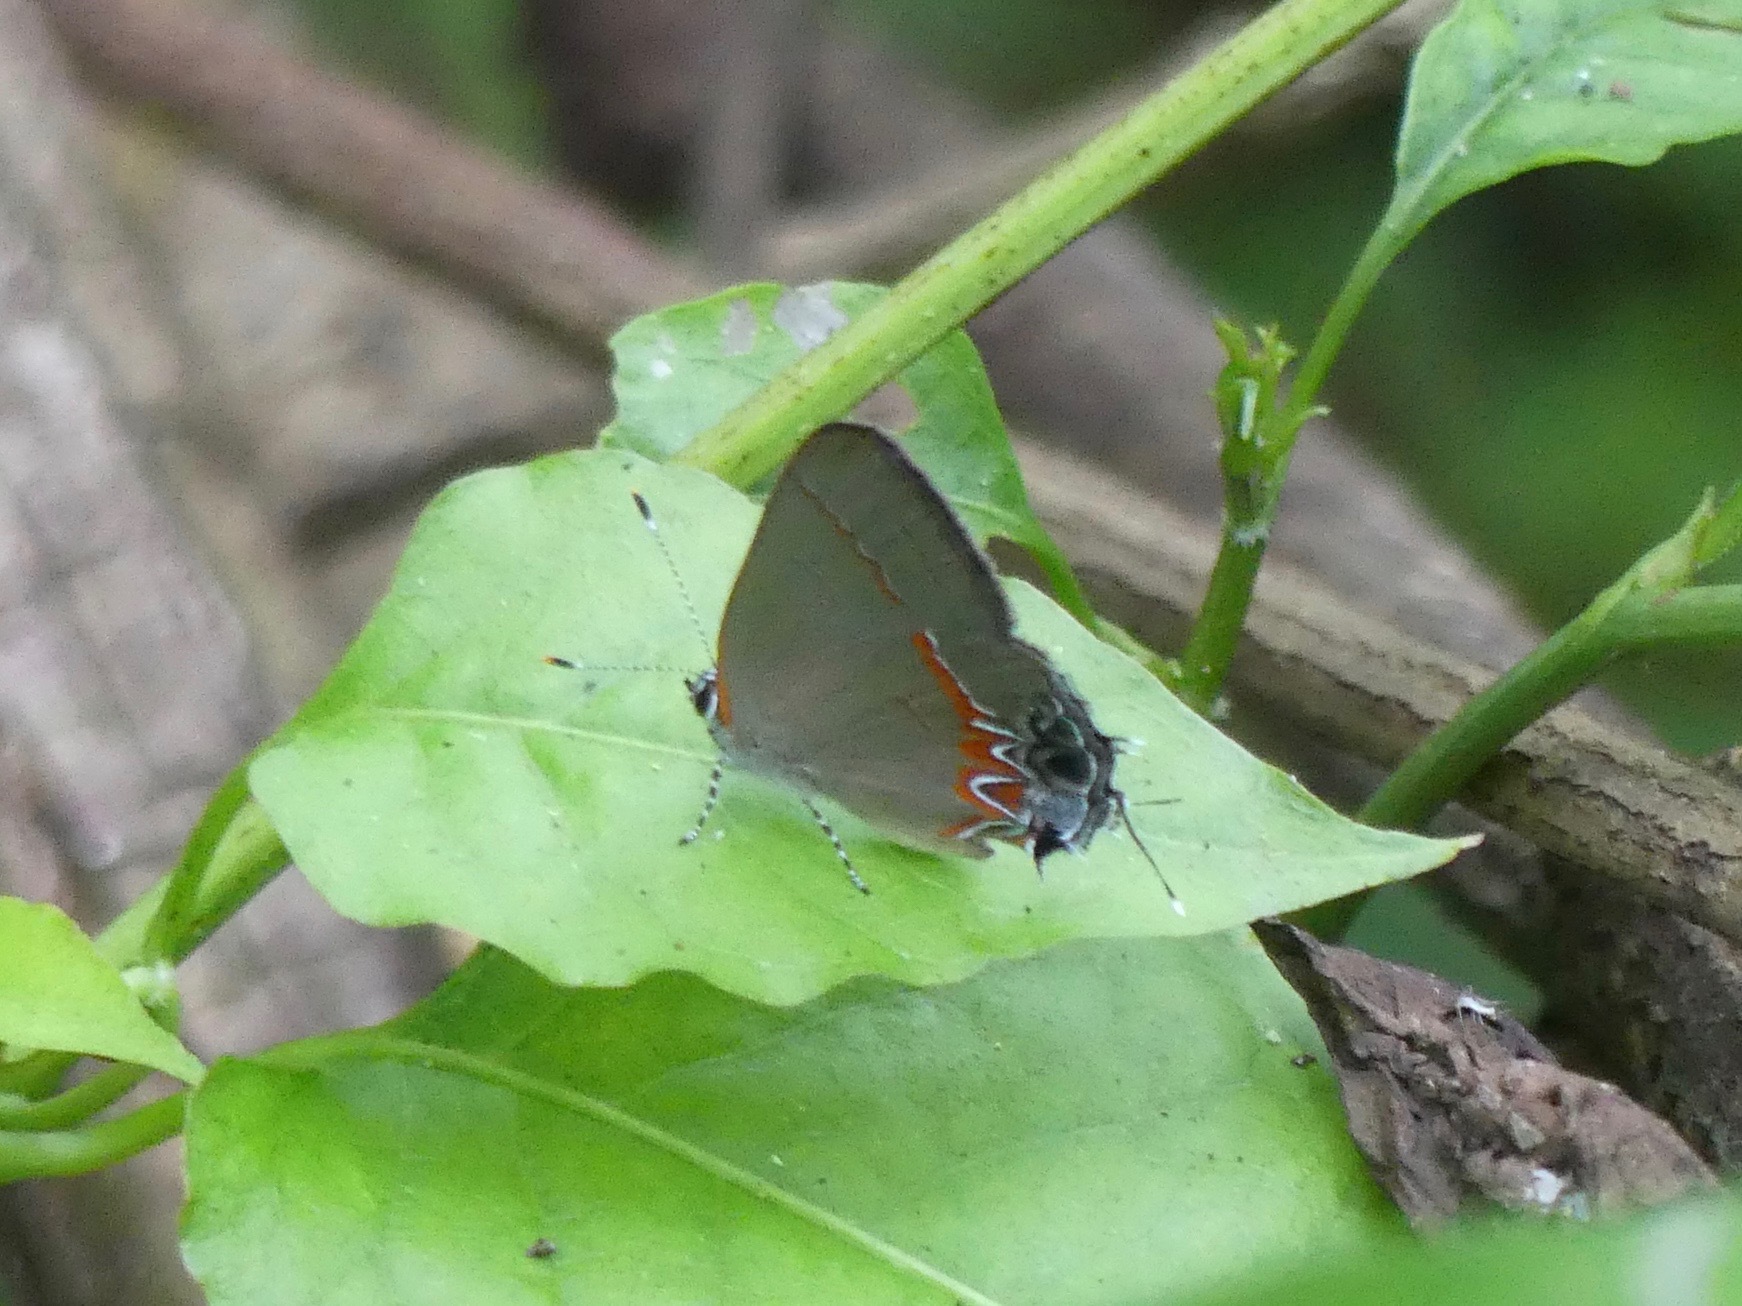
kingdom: Animalia
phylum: Arthropoda
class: Insecta
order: Lepidoptera
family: Lycaenidae
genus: Calycopis
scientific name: Calycopis cecrops
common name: Red-banded hairstreak
